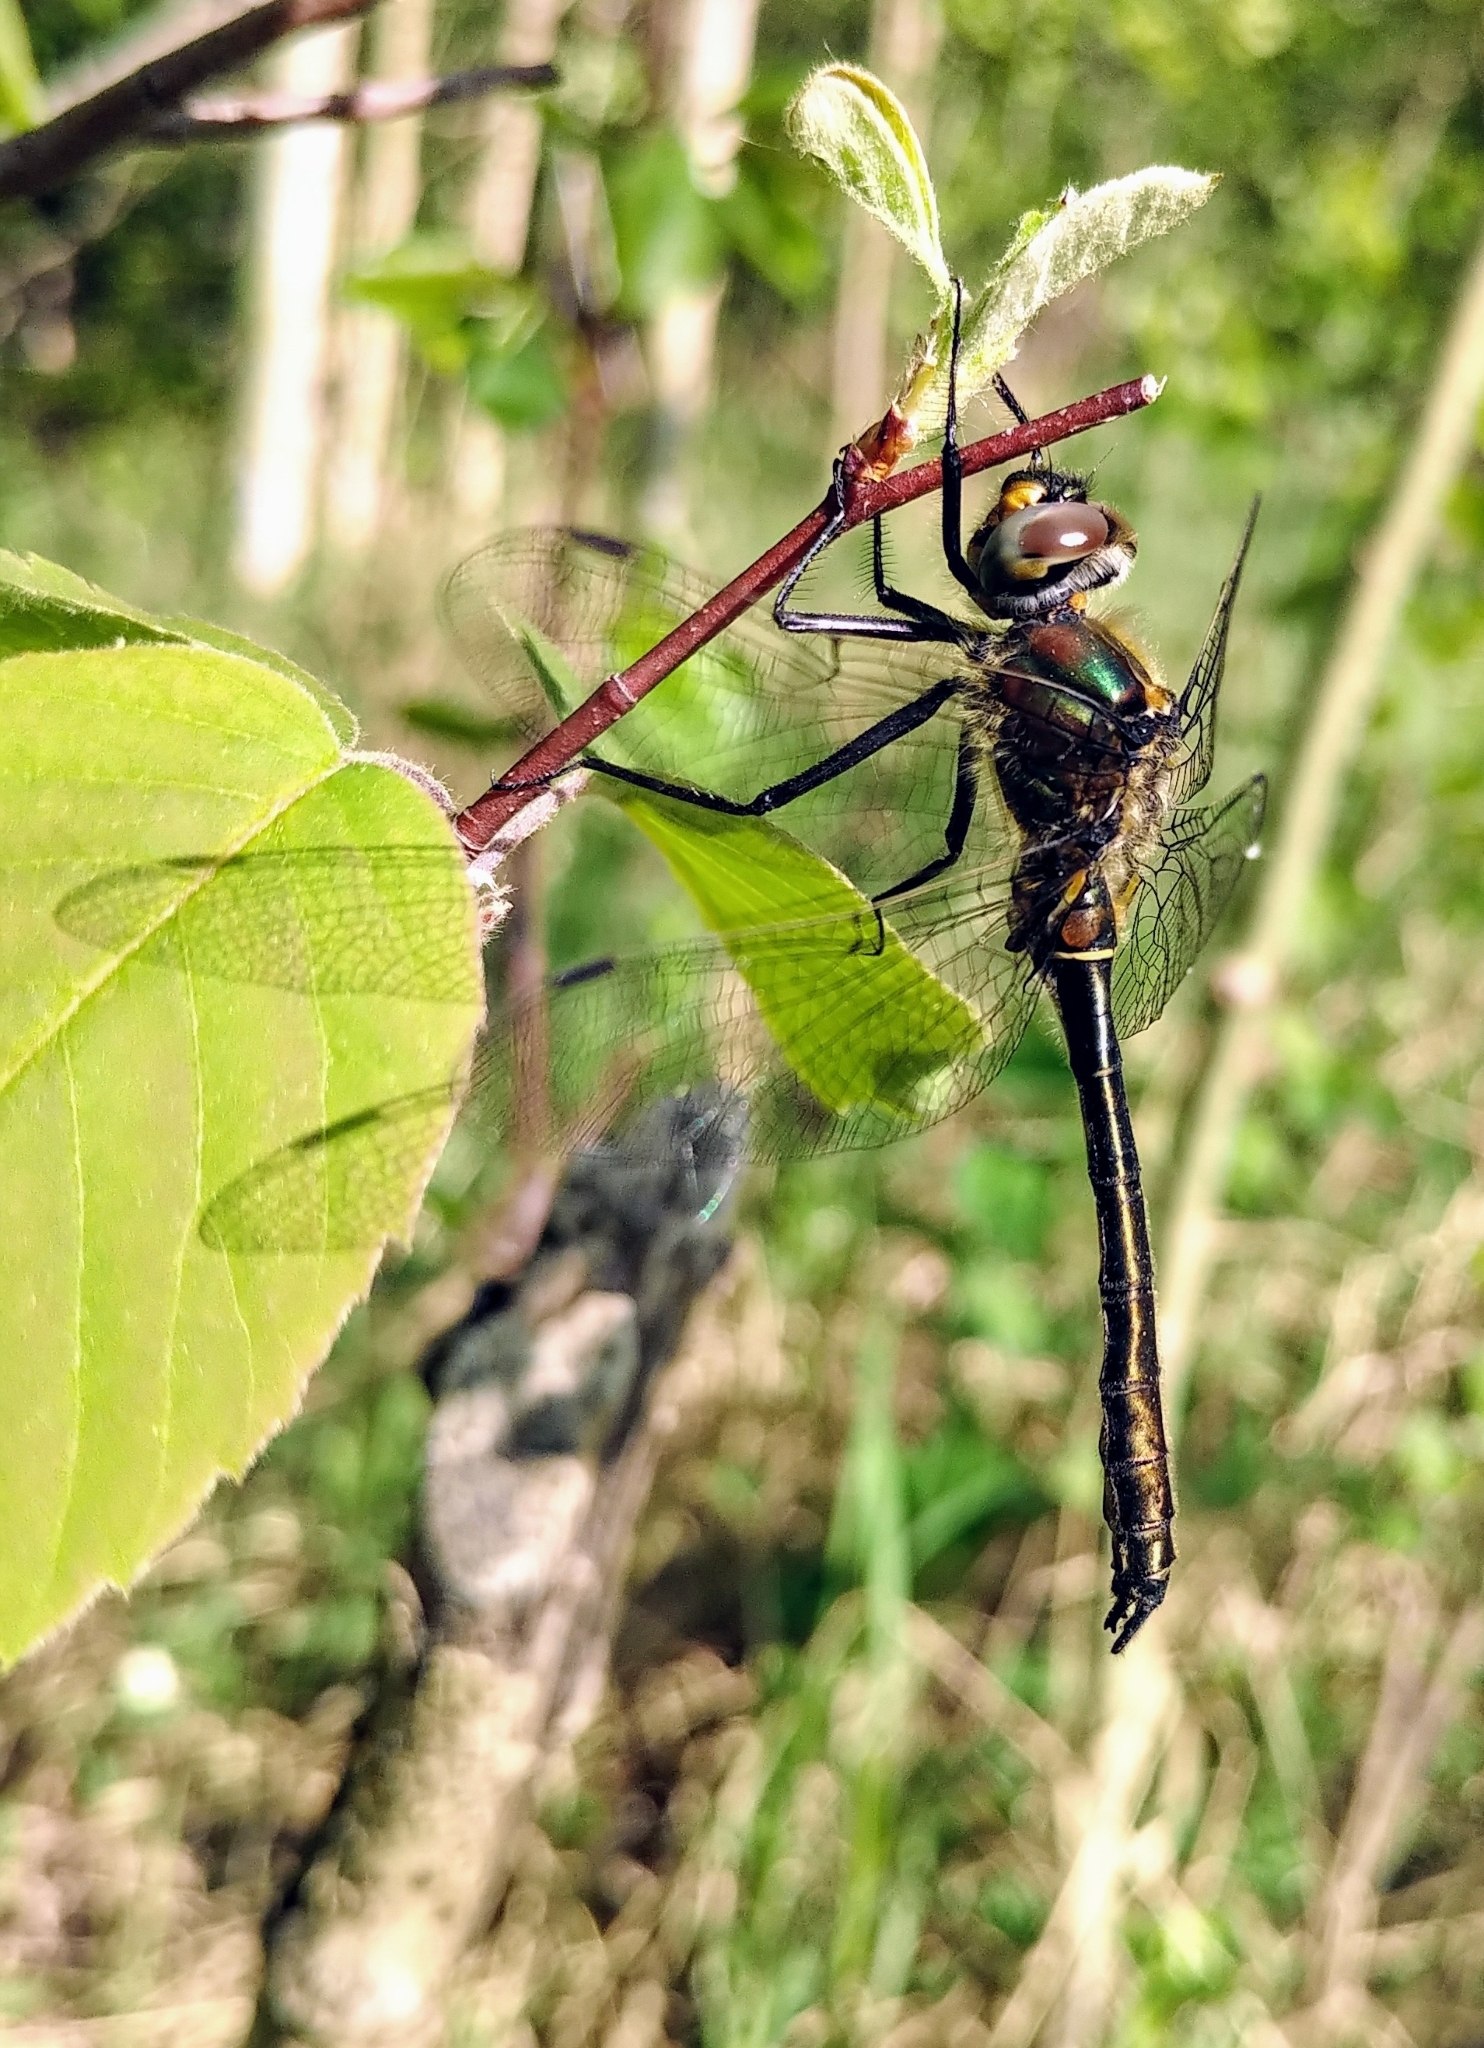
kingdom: Animalia
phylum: Arthropoda
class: Insecta
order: Odonata
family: Corduliidae
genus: Cordulia
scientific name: Cordulia shurtleffii
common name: American emerald
